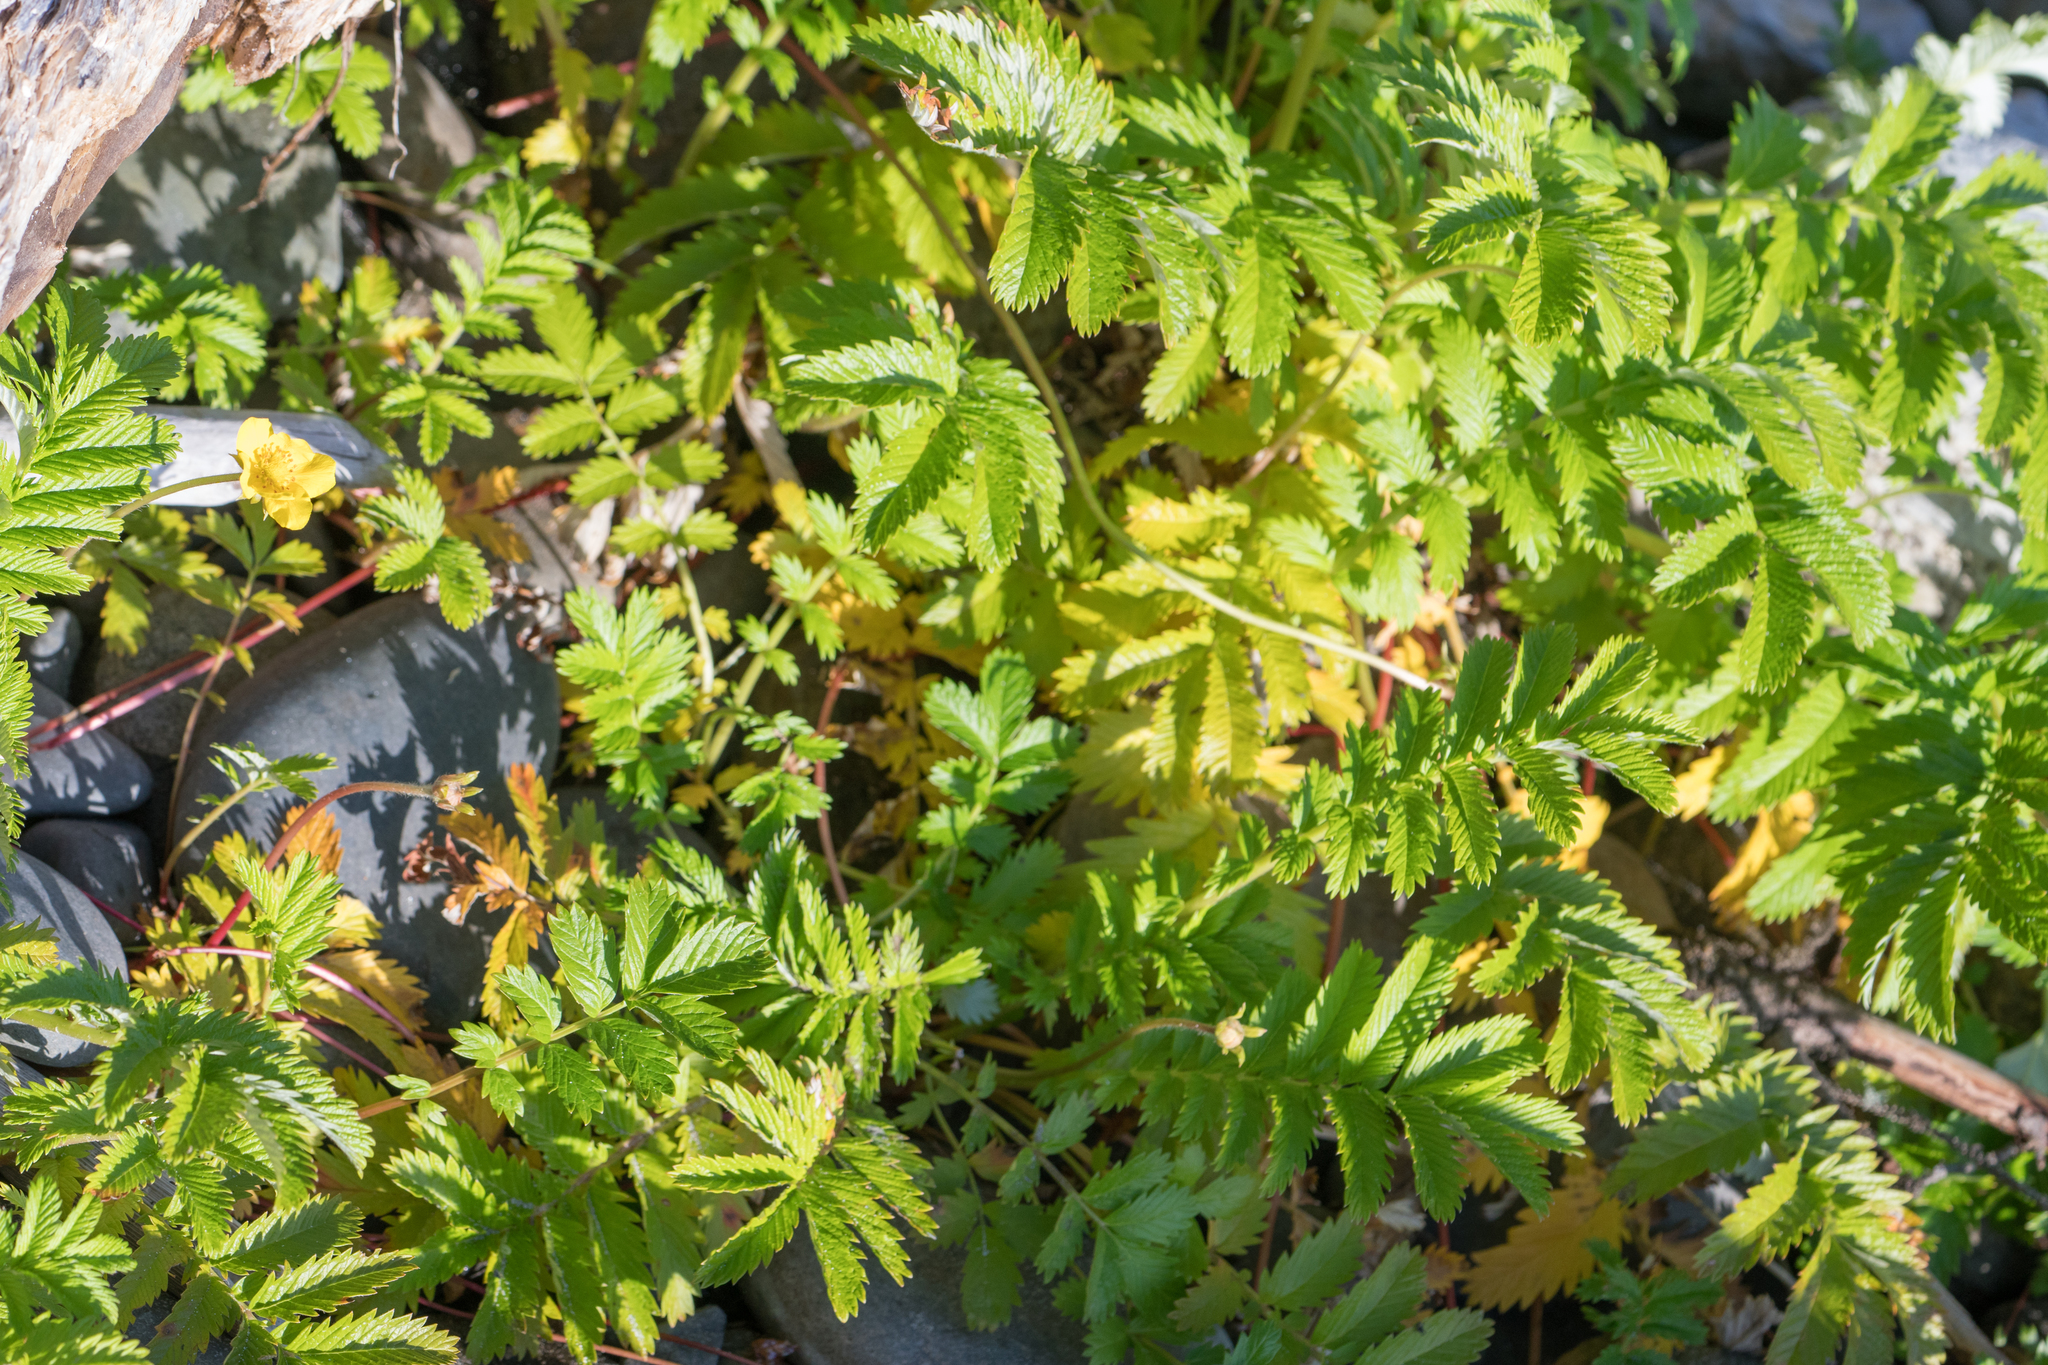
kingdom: Plantae
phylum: Tracheophyta
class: Magnoliopsida
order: Rosales
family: Rosaceae
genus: Argentina
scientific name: Argentina anserina
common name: Common silverweed
